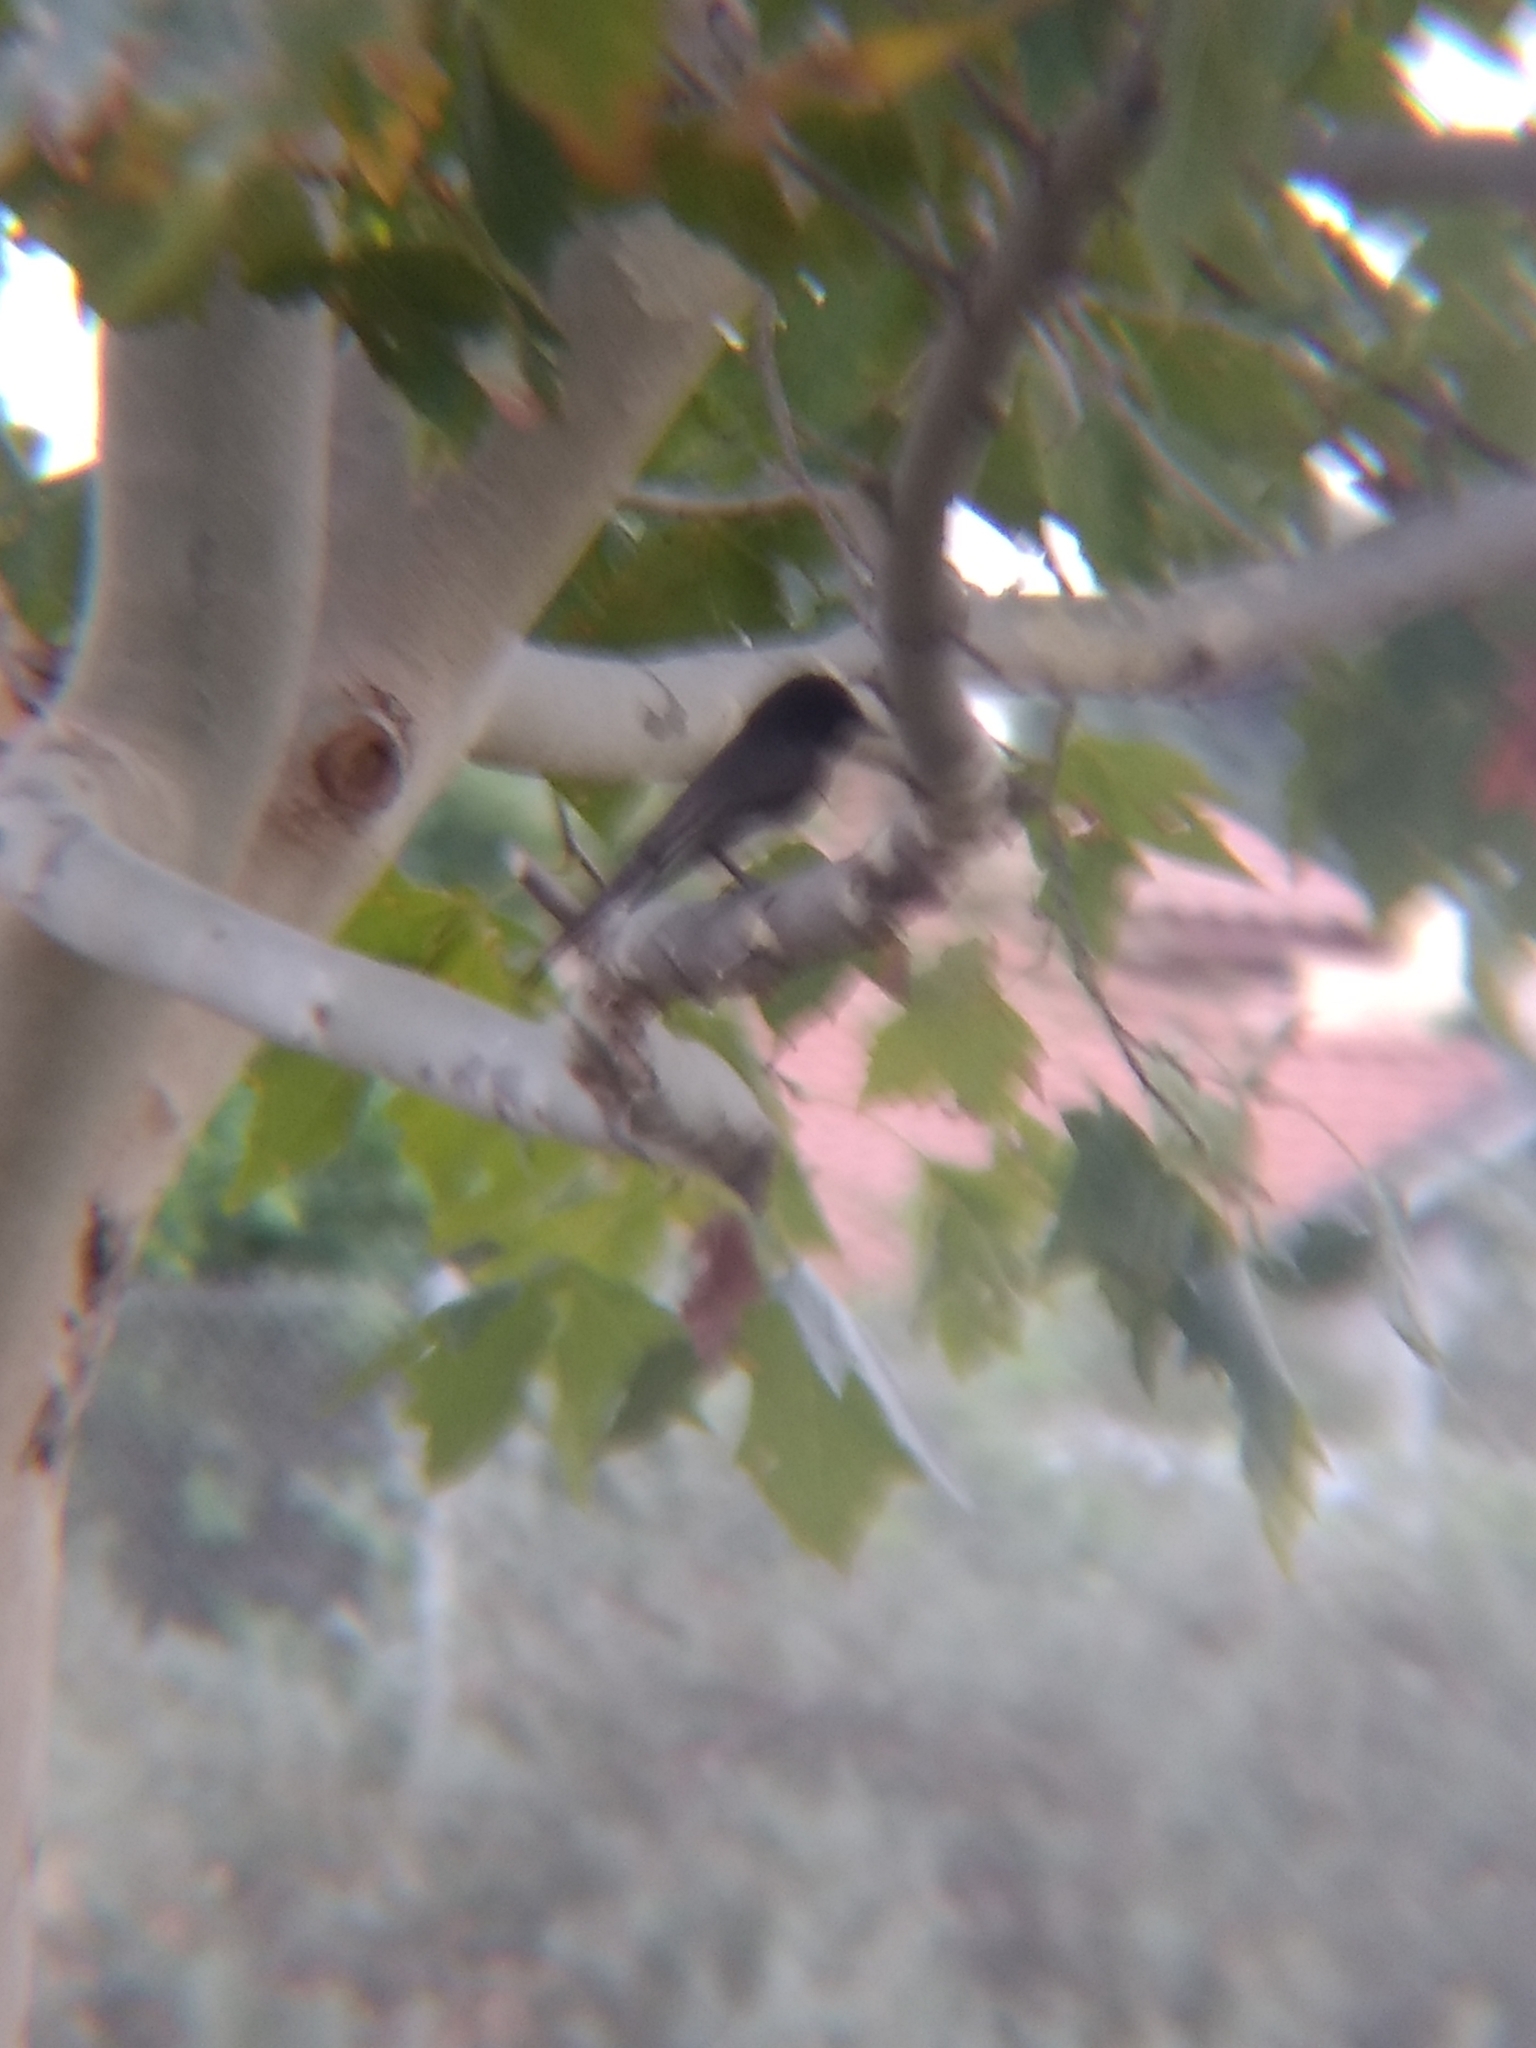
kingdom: Animalia
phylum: Chordata
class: Aves
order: Passeriformes
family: Tyrannidae
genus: Sayornis
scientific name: Sayornis nigricans
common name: Black phoebe
